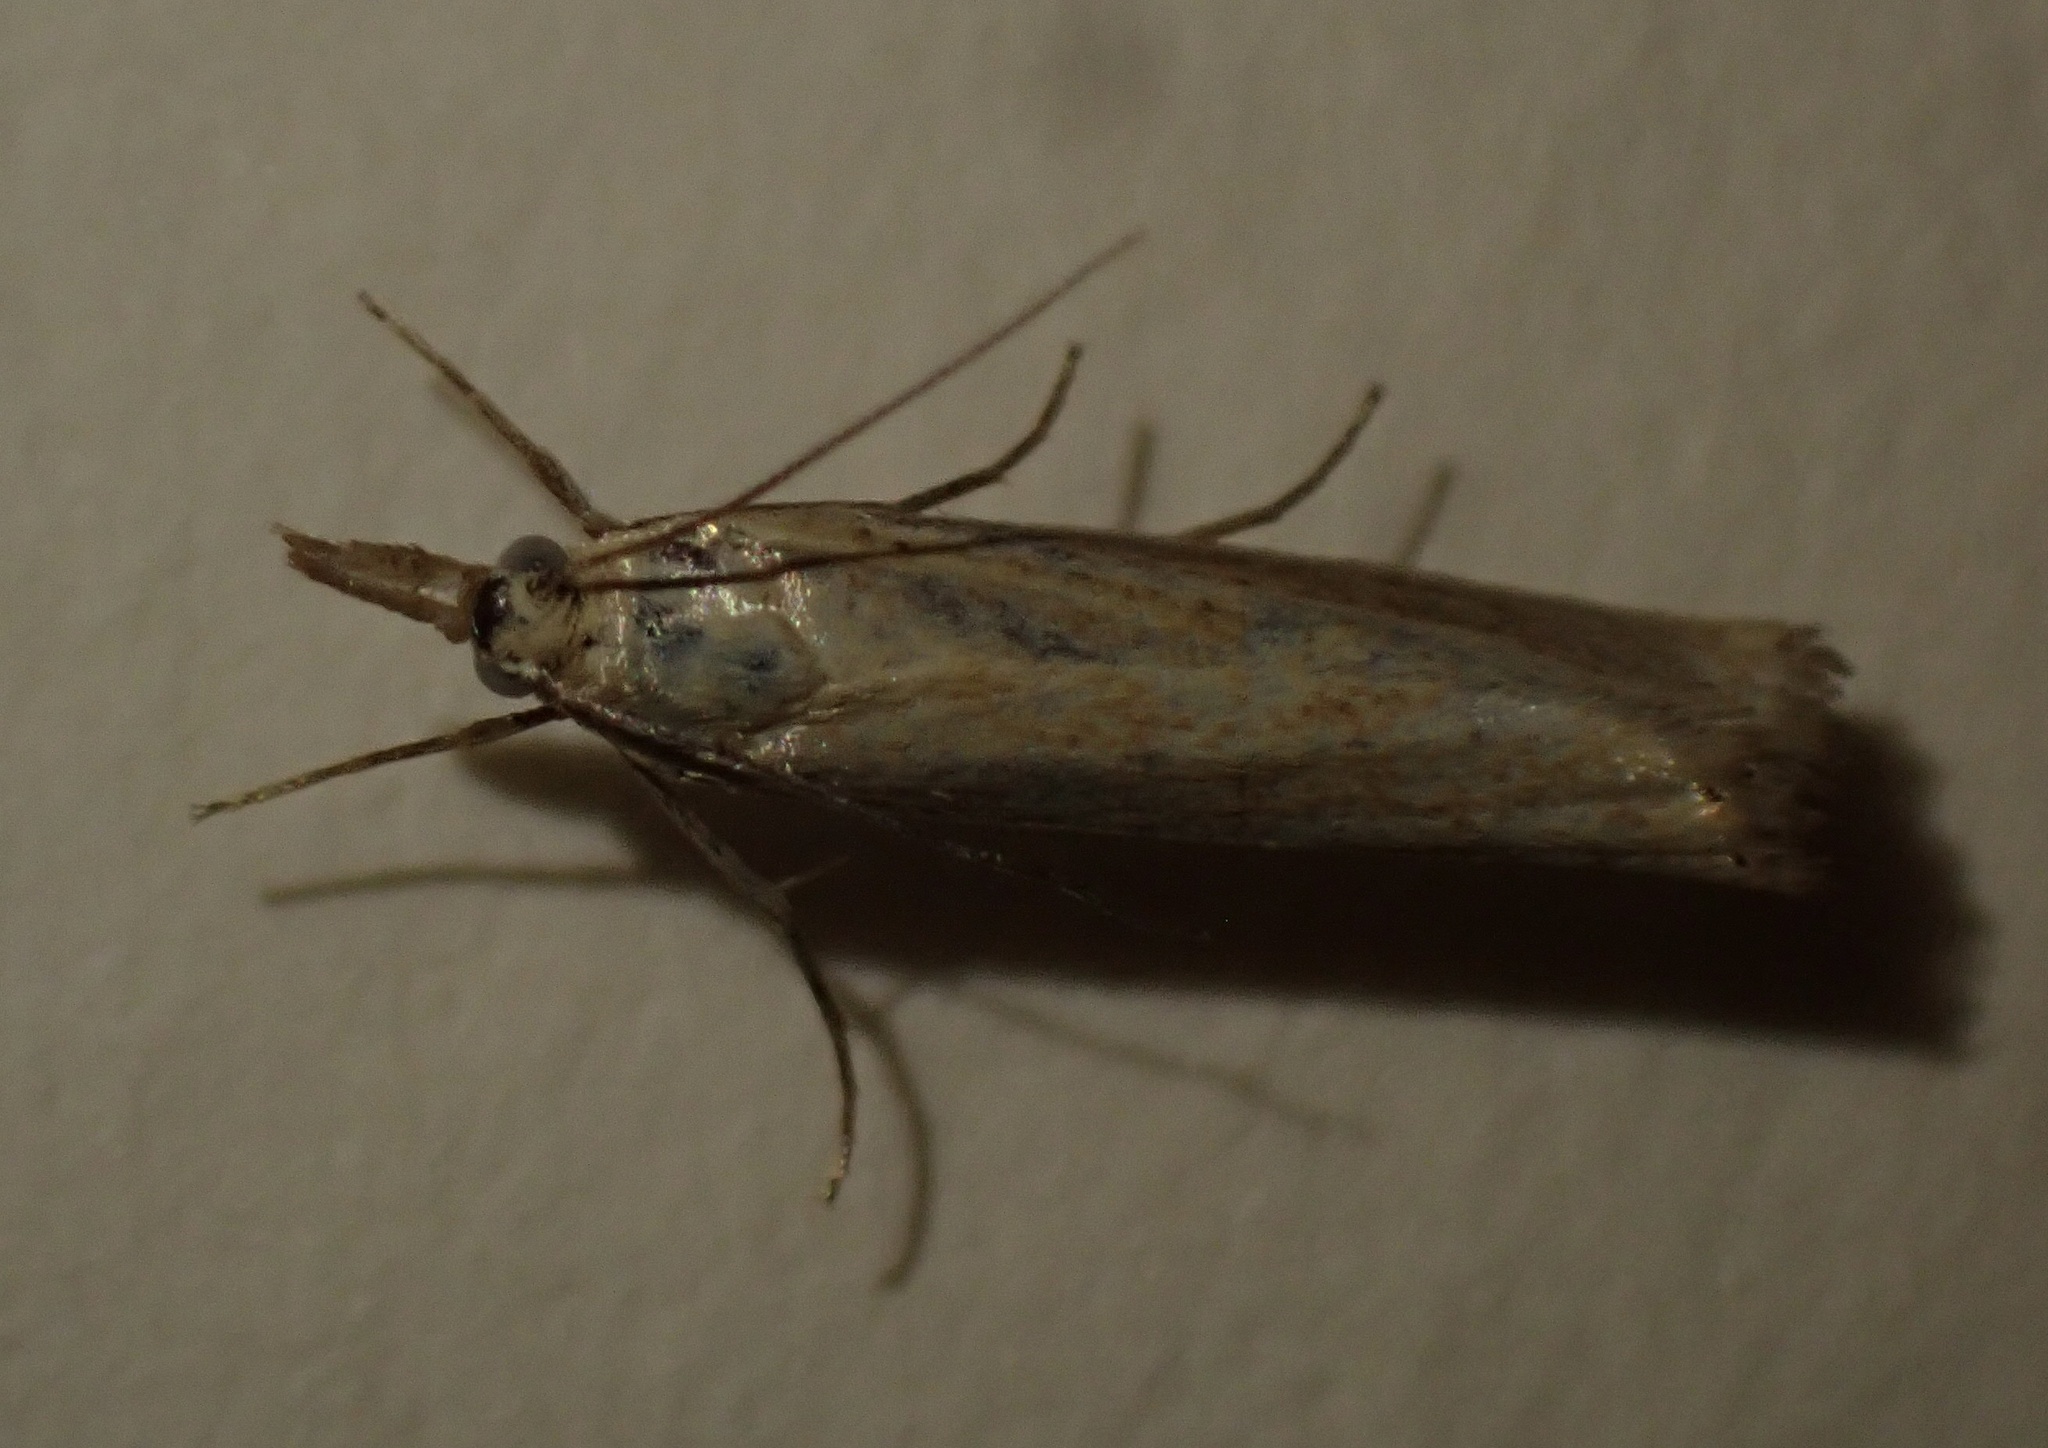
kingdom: Animalia
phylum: Arthropoda
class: Insecta
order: Lepidoptera
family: Crambidae
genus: Agriphila
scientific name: Agriphila straminella
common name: Straw grass-veneer
